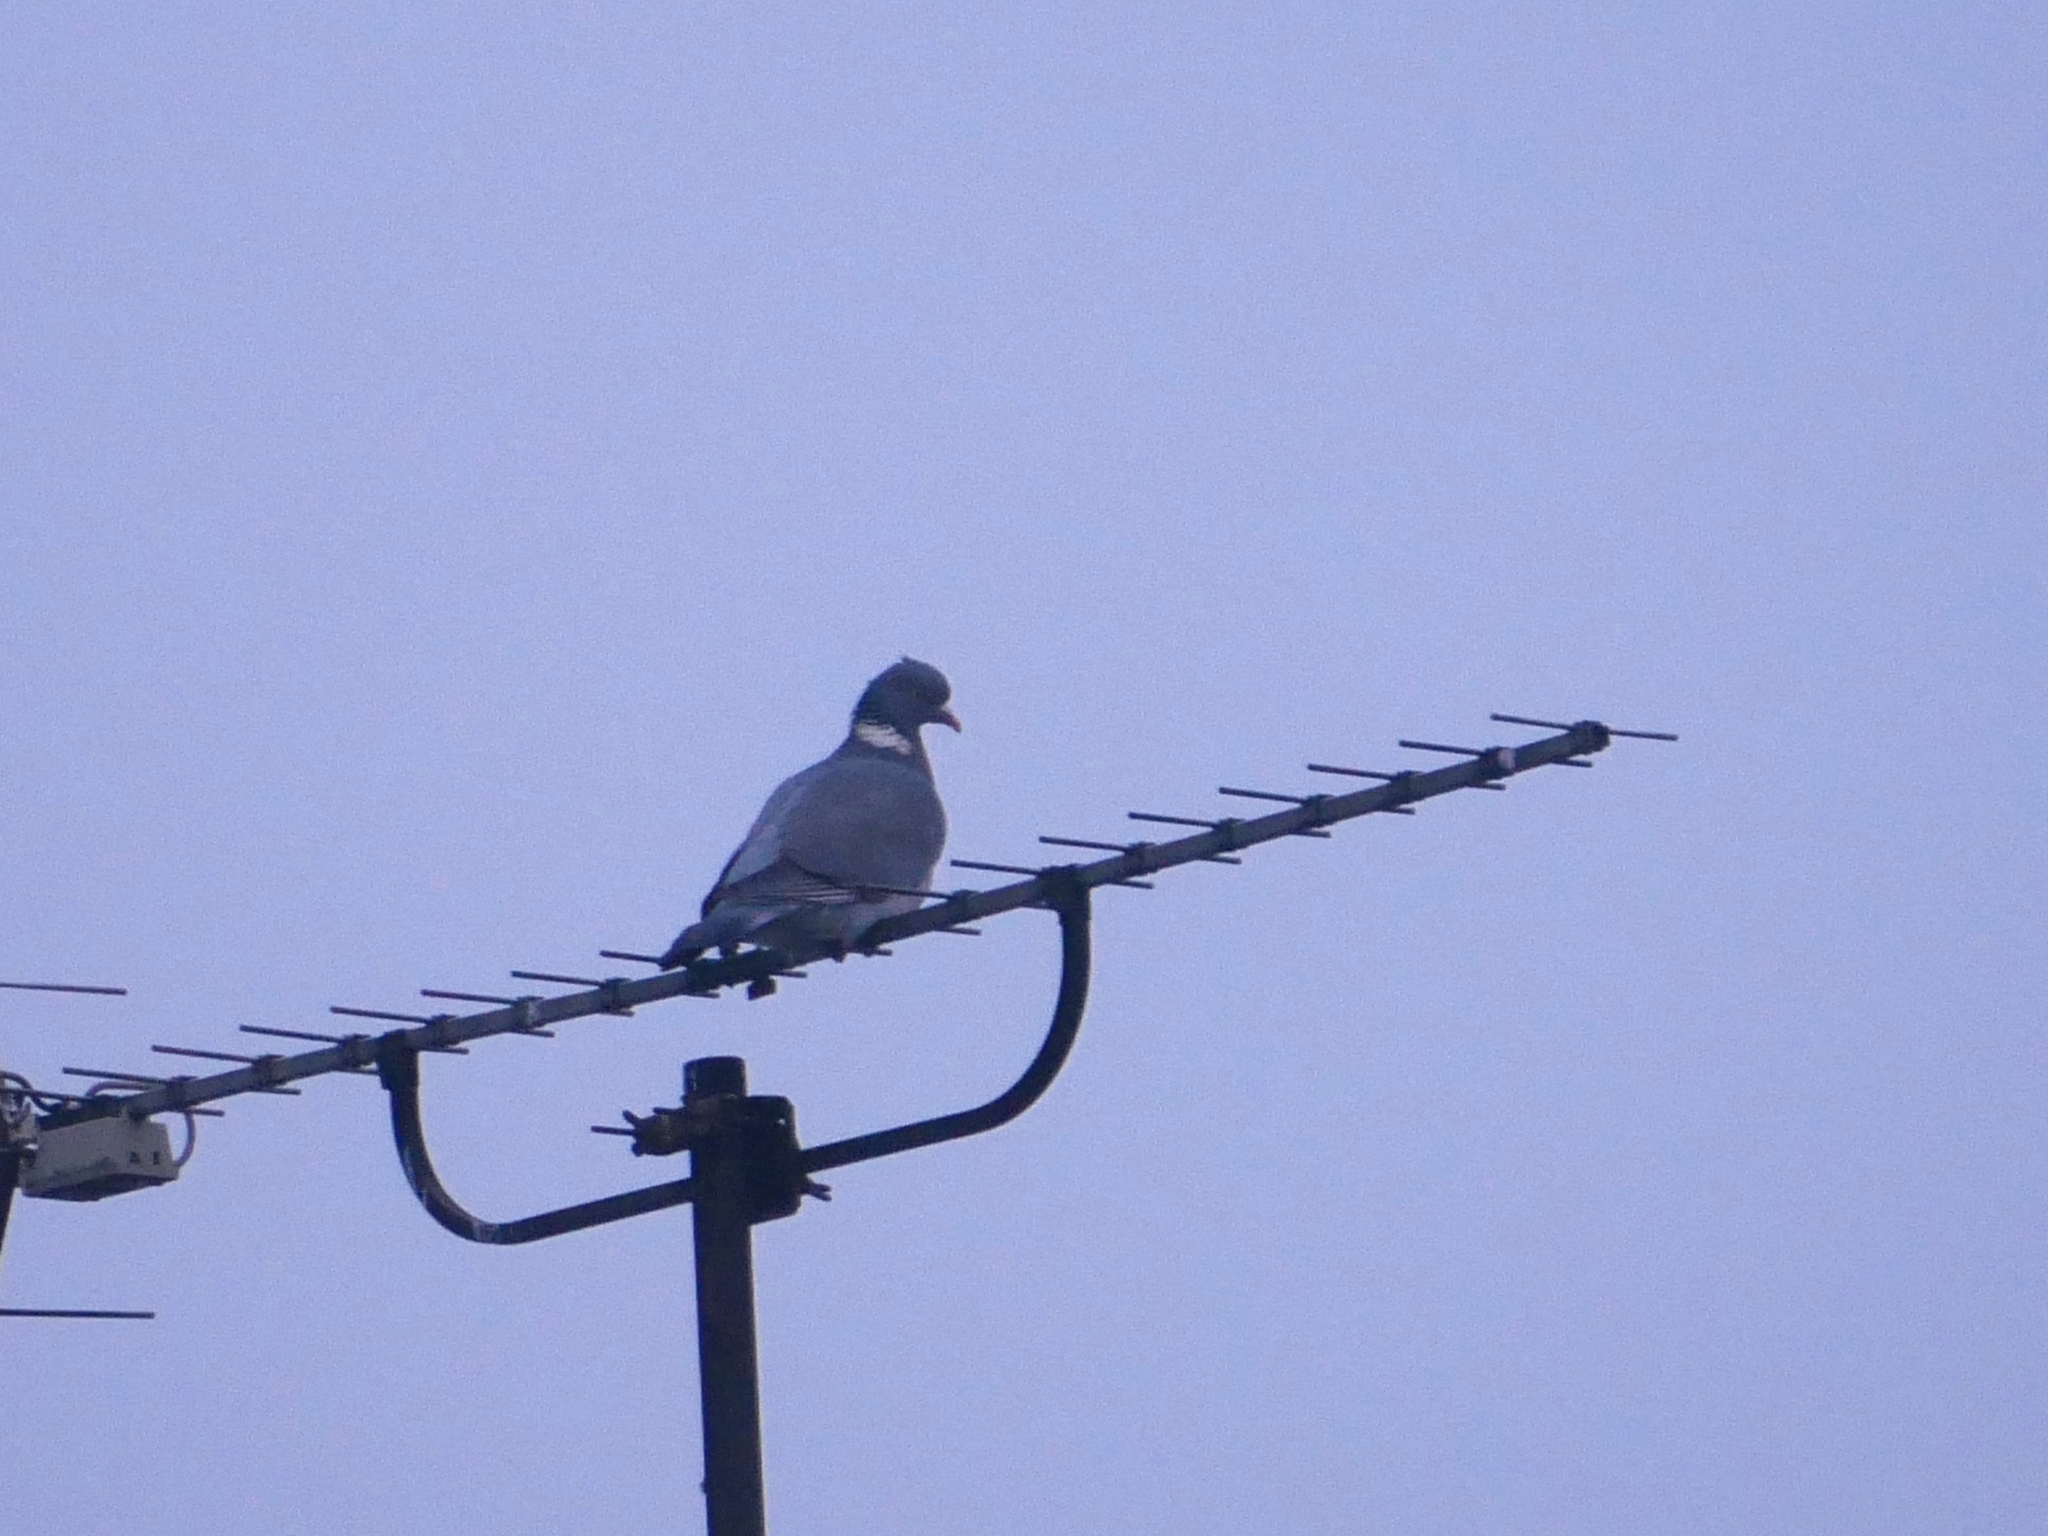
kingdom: Animalia
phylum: Chordata
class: Aves
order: Columbiformes
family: Columbidae
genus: Columba
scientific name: Columba palumbus
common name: Common wood pigeon
